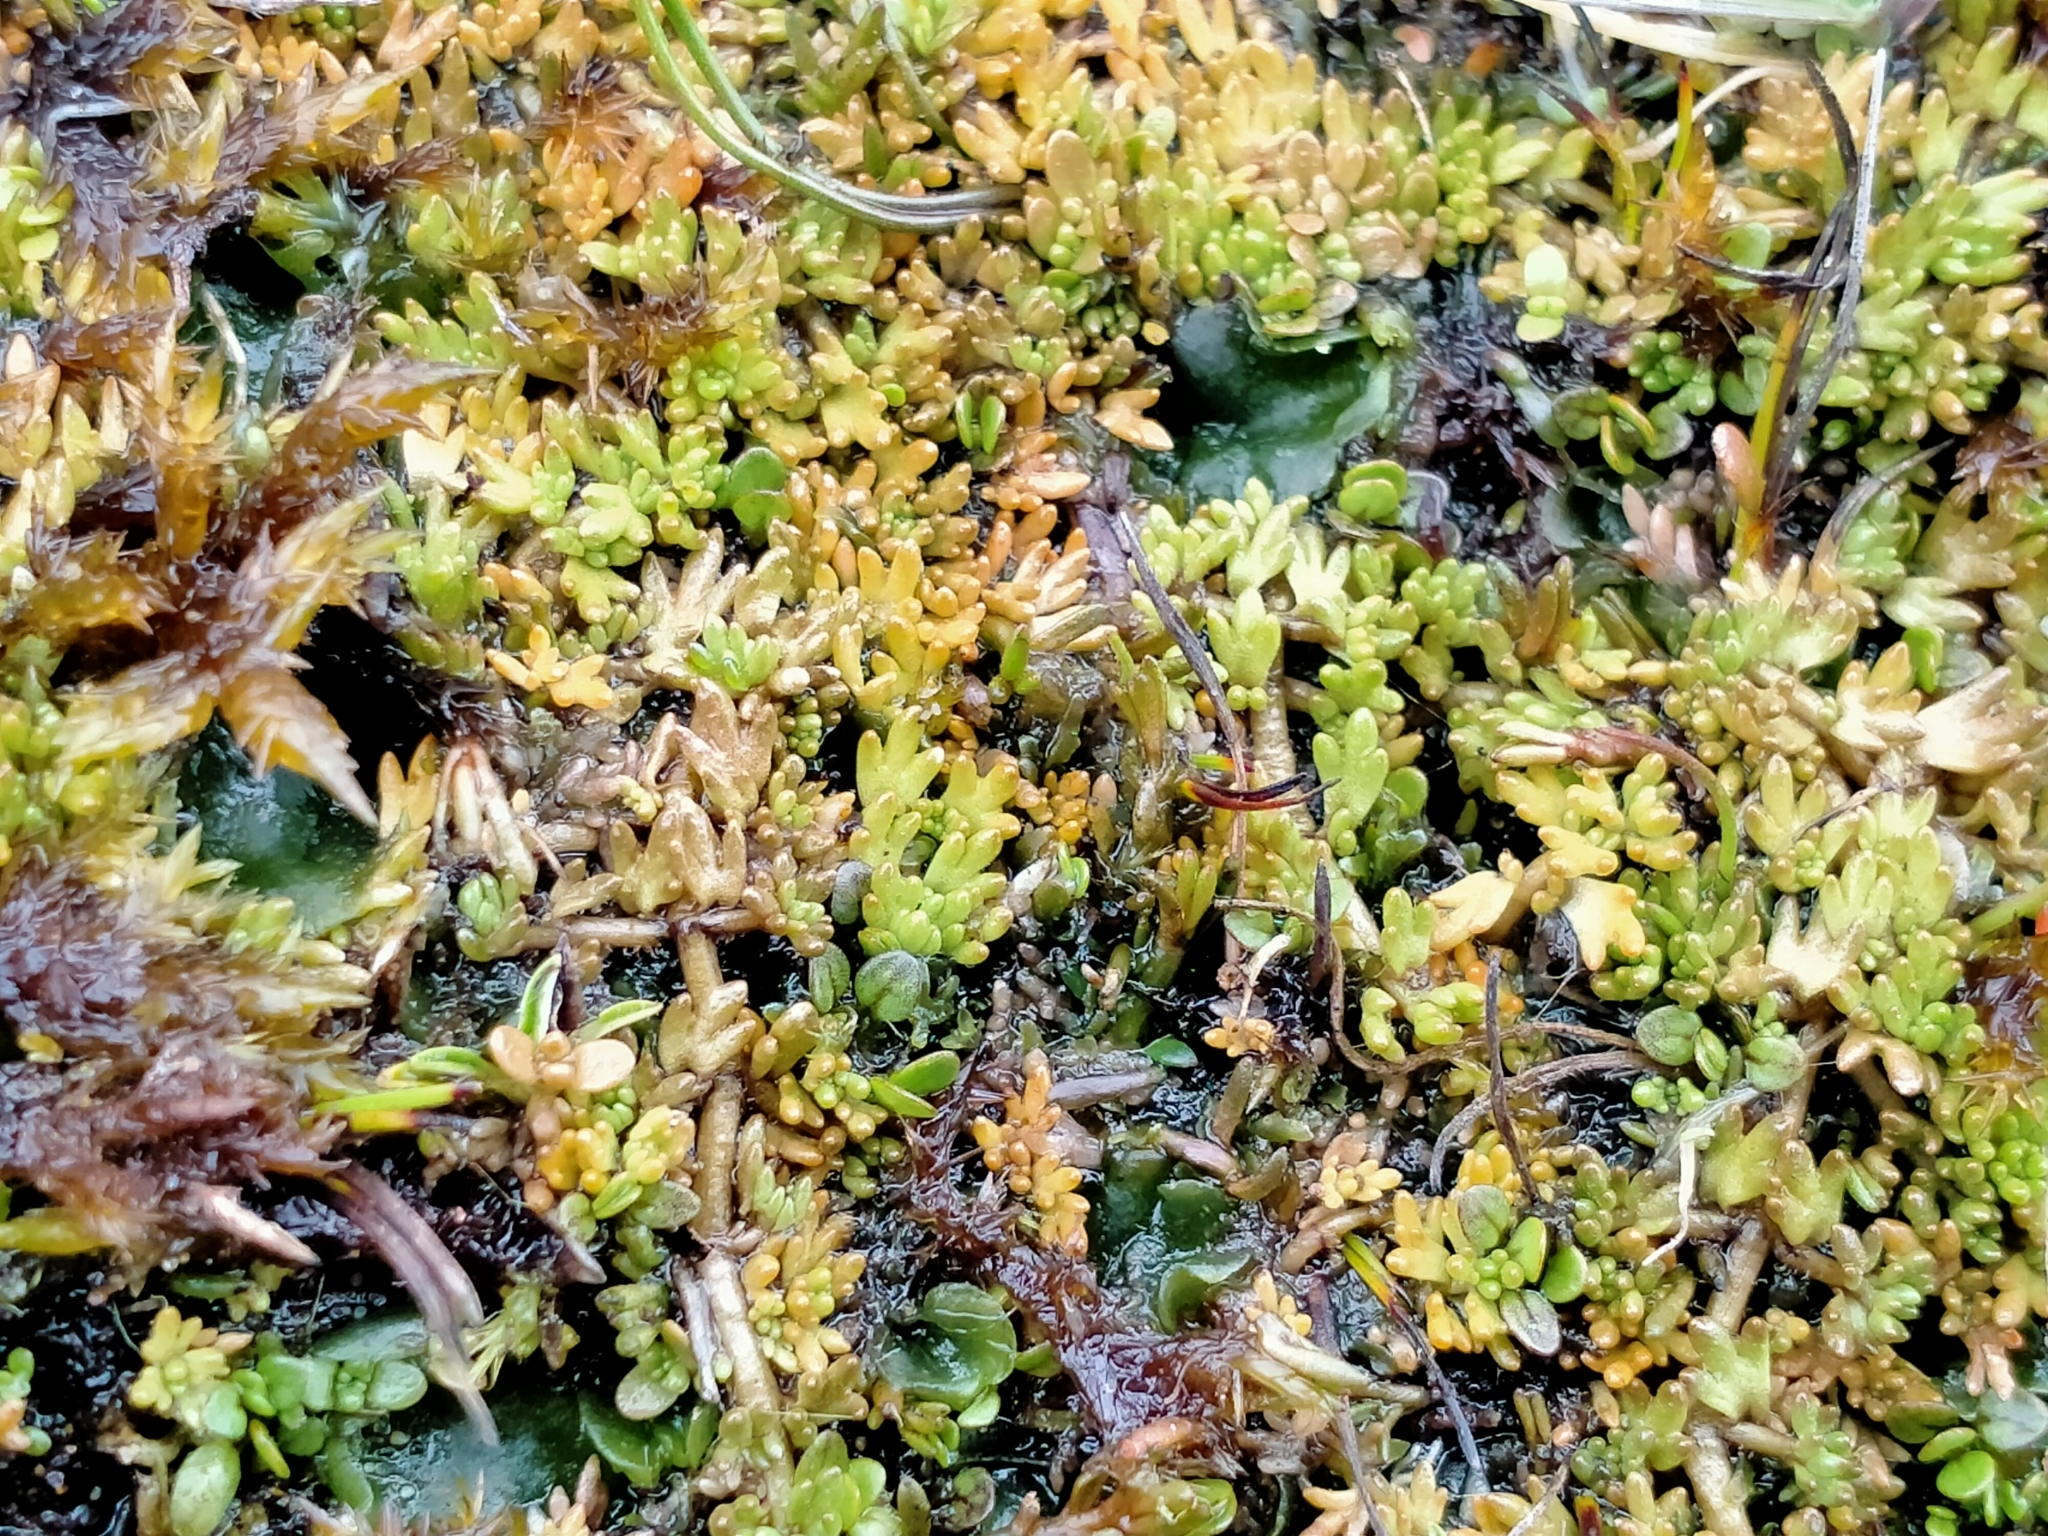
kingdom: Plantae
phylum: Tracheophyta
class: Magnoliopsida
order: Lamiales
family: Orobanchaceae
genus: Euphrasia
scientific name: Euphrasia repens
